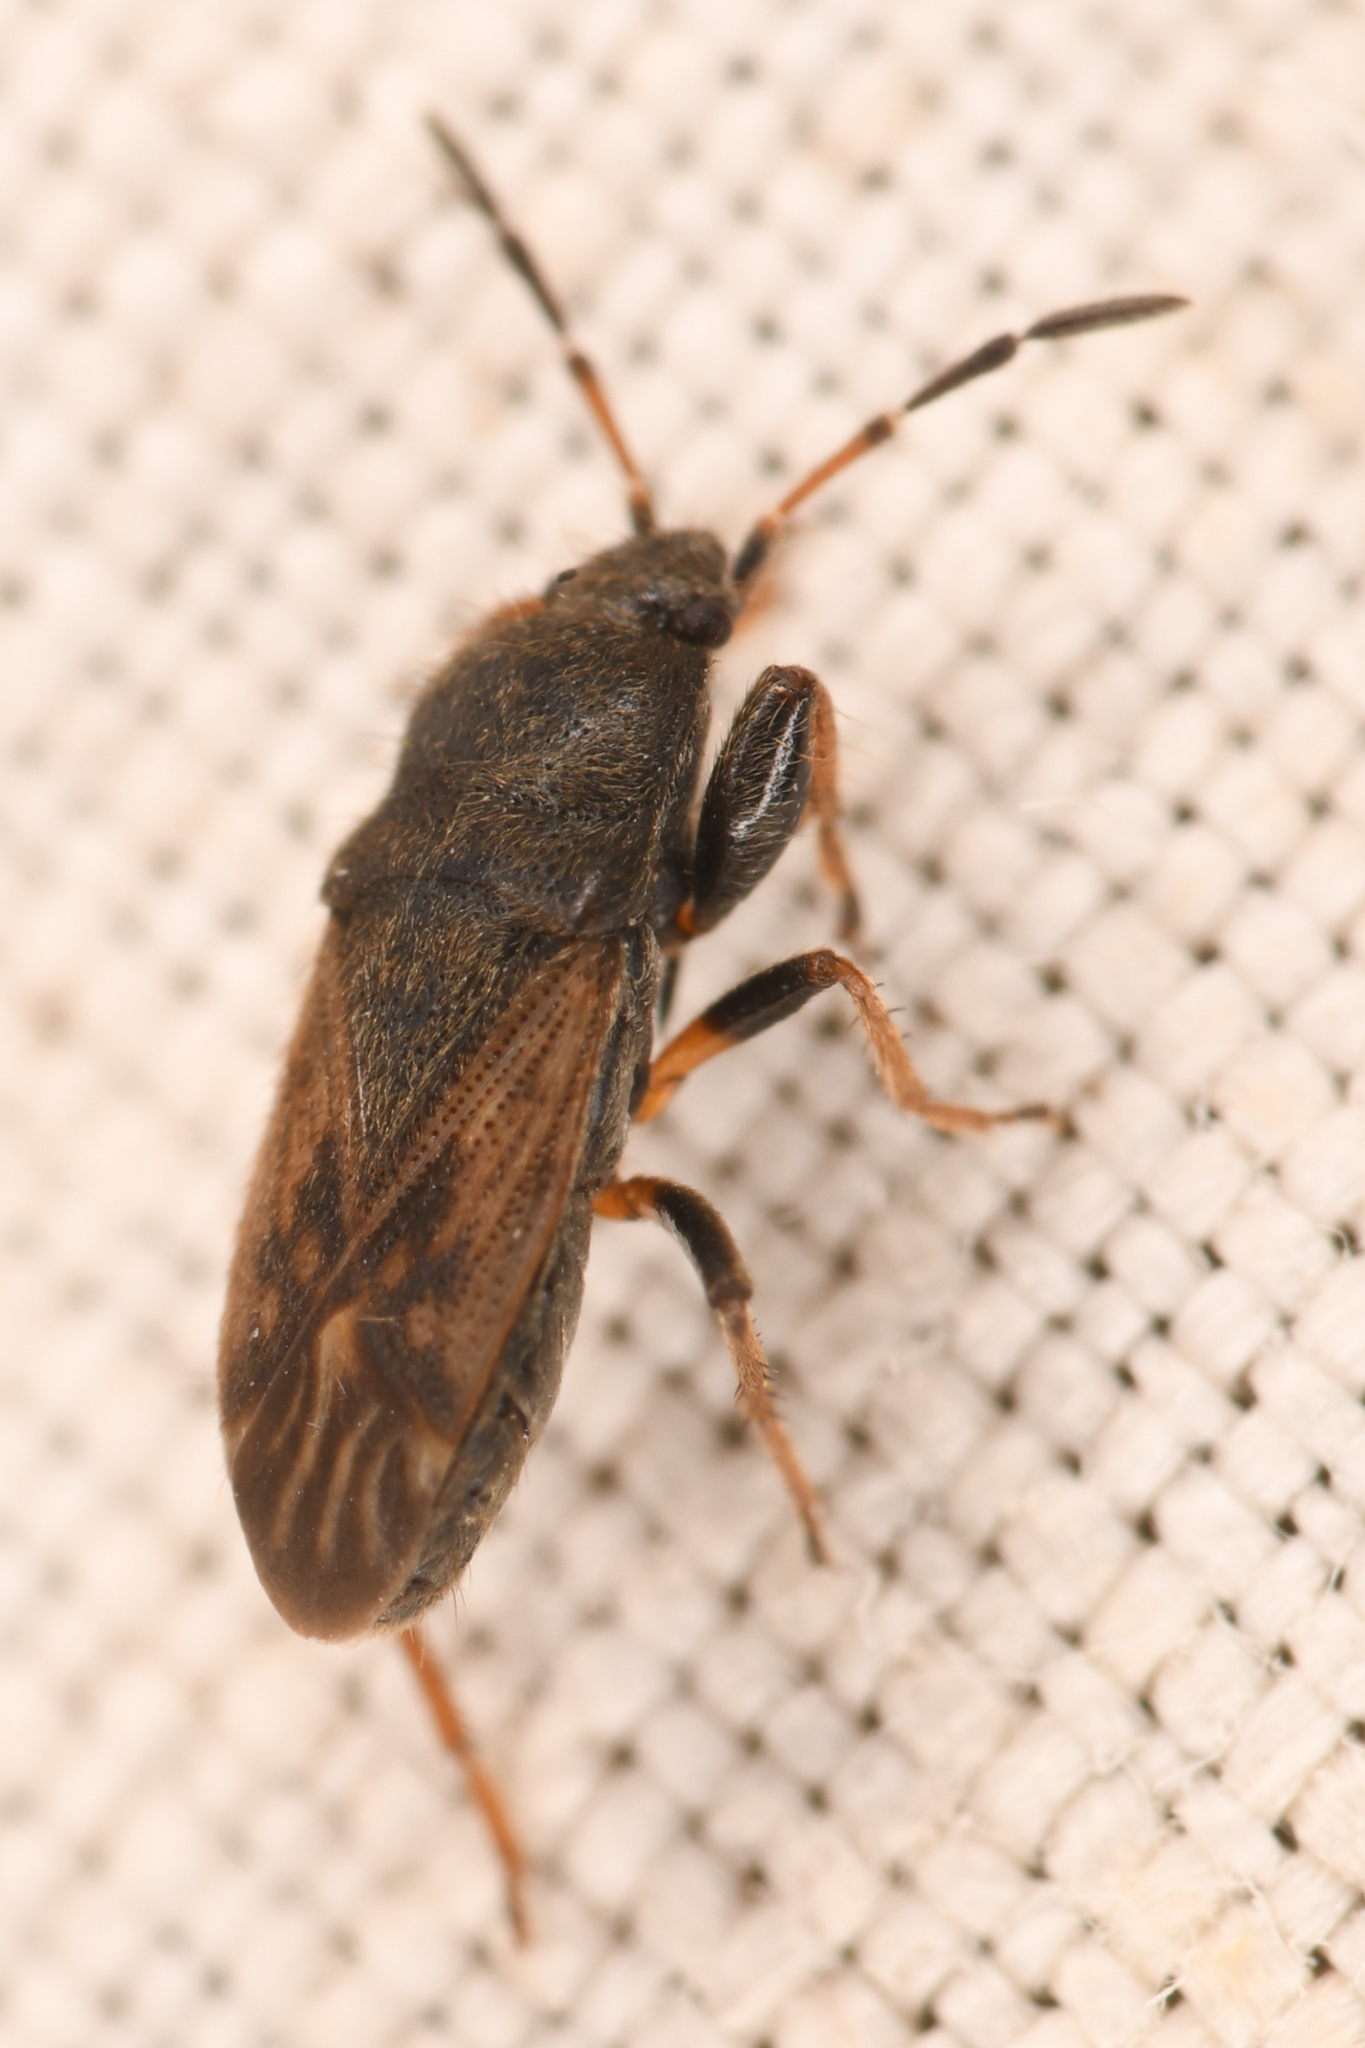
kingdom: Animalia
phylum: Arthropoda
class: Insecta
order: Hemiptera
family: Rhyparochromidae
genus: Megalonotus
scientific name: Megalonotus sabulicola
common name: Seed bug
